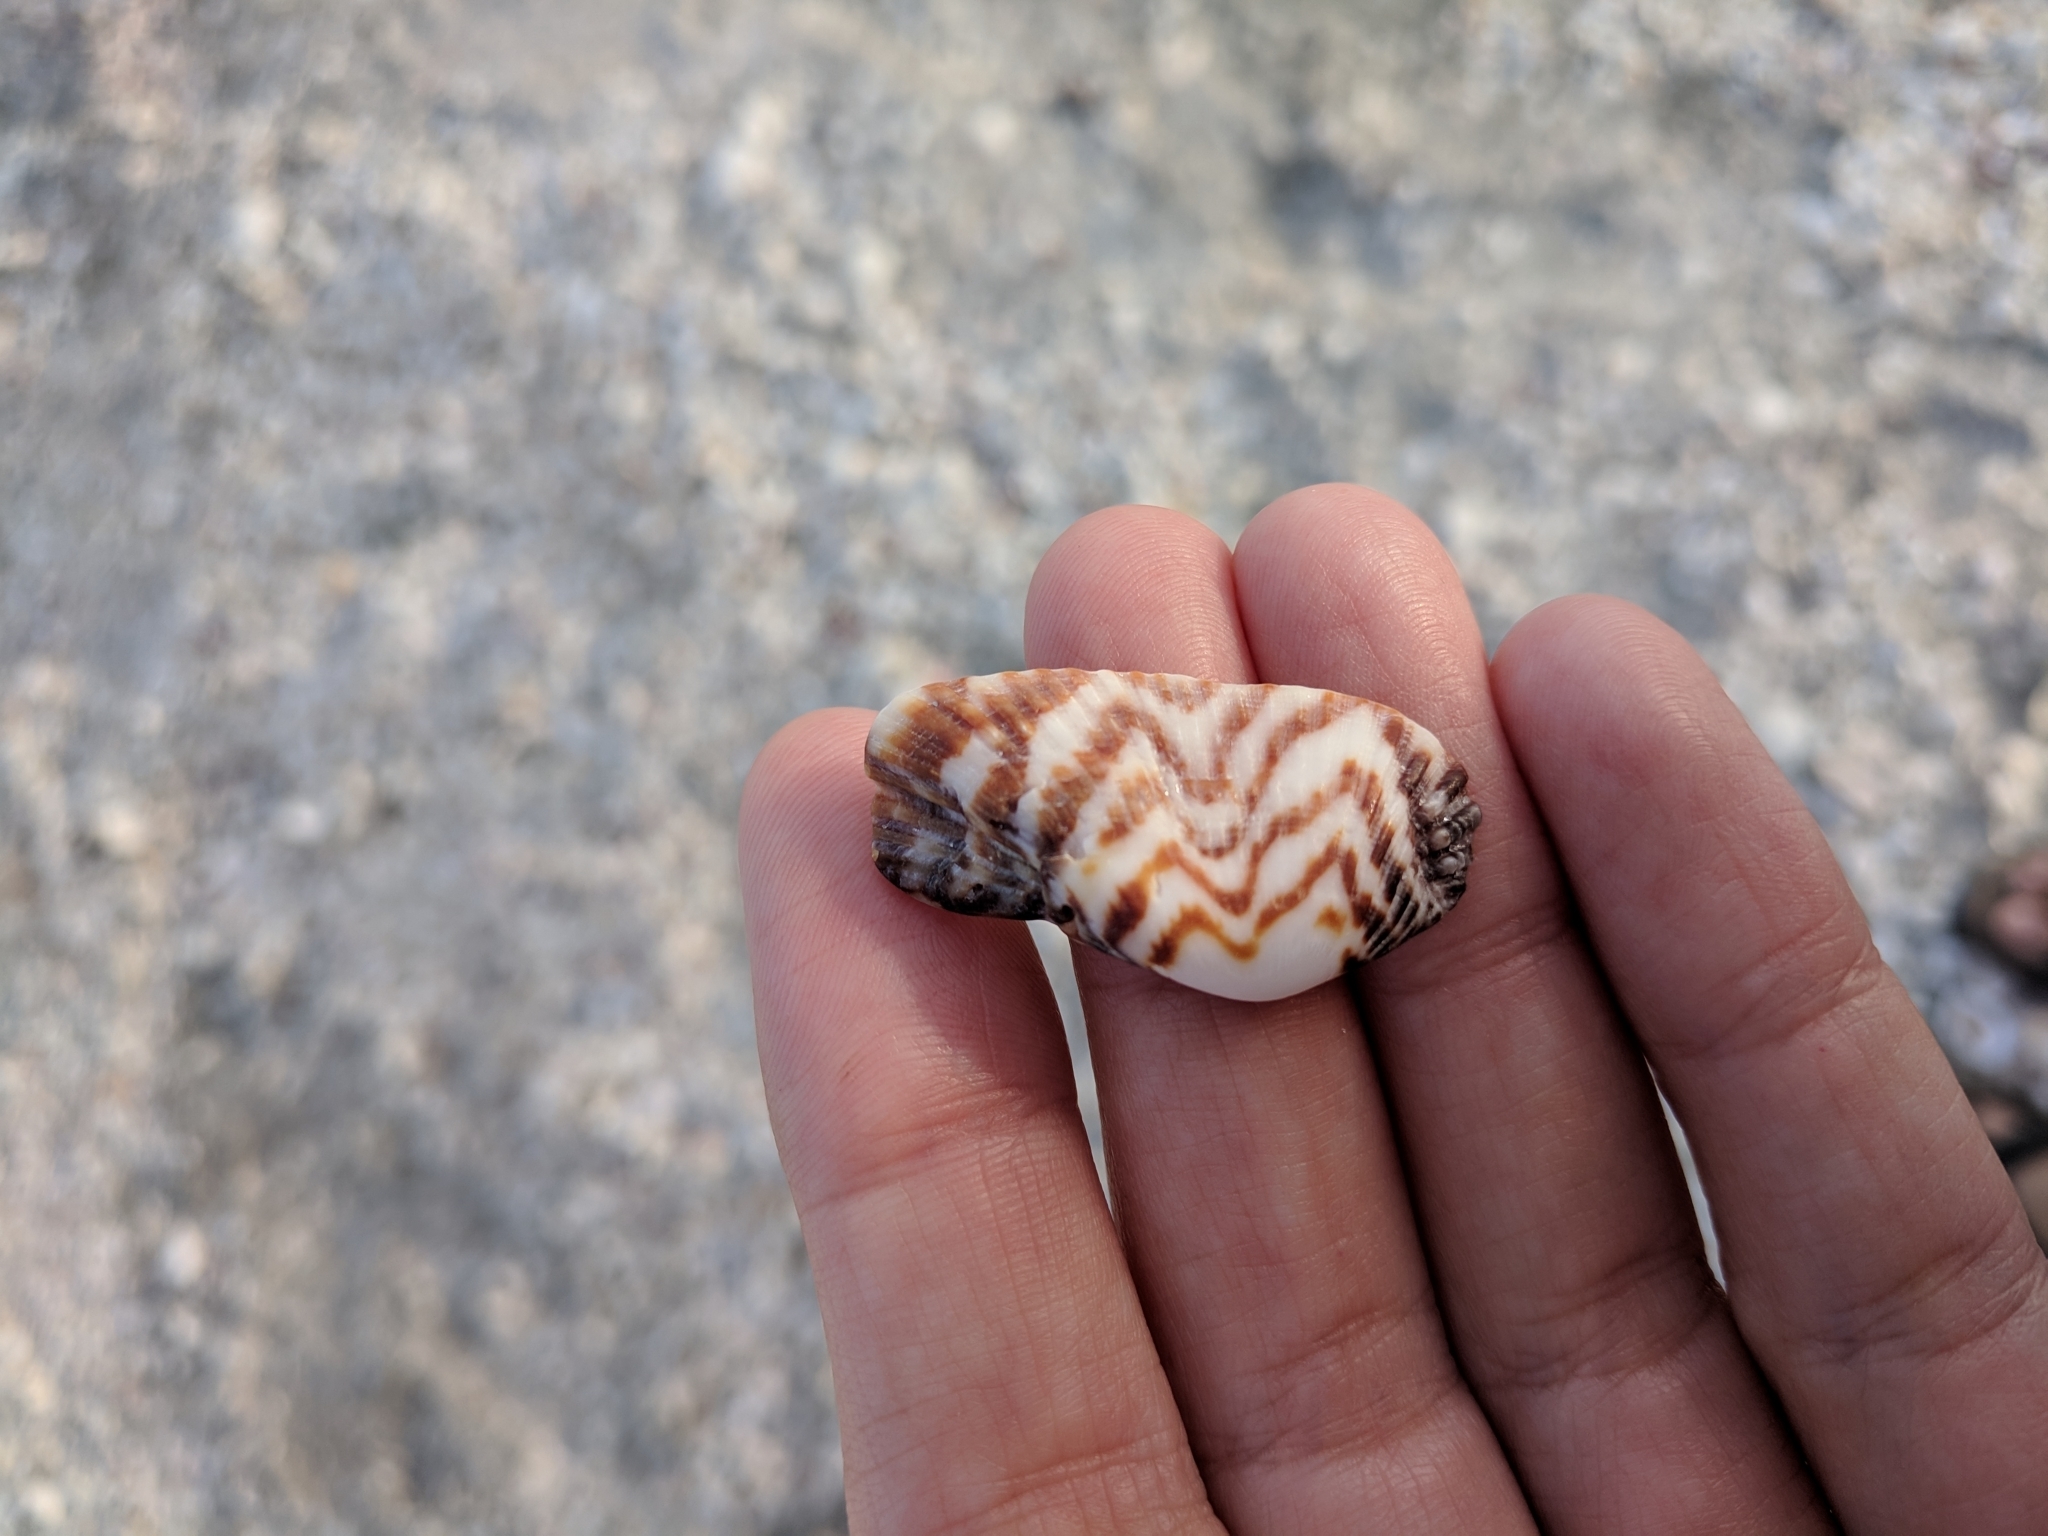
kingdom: Animalia
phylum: Mollusca
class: Bivalvia
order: Arcida
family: Arcidae
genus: Arca
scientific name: Arca zebra
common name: Atlantic turkey wing
